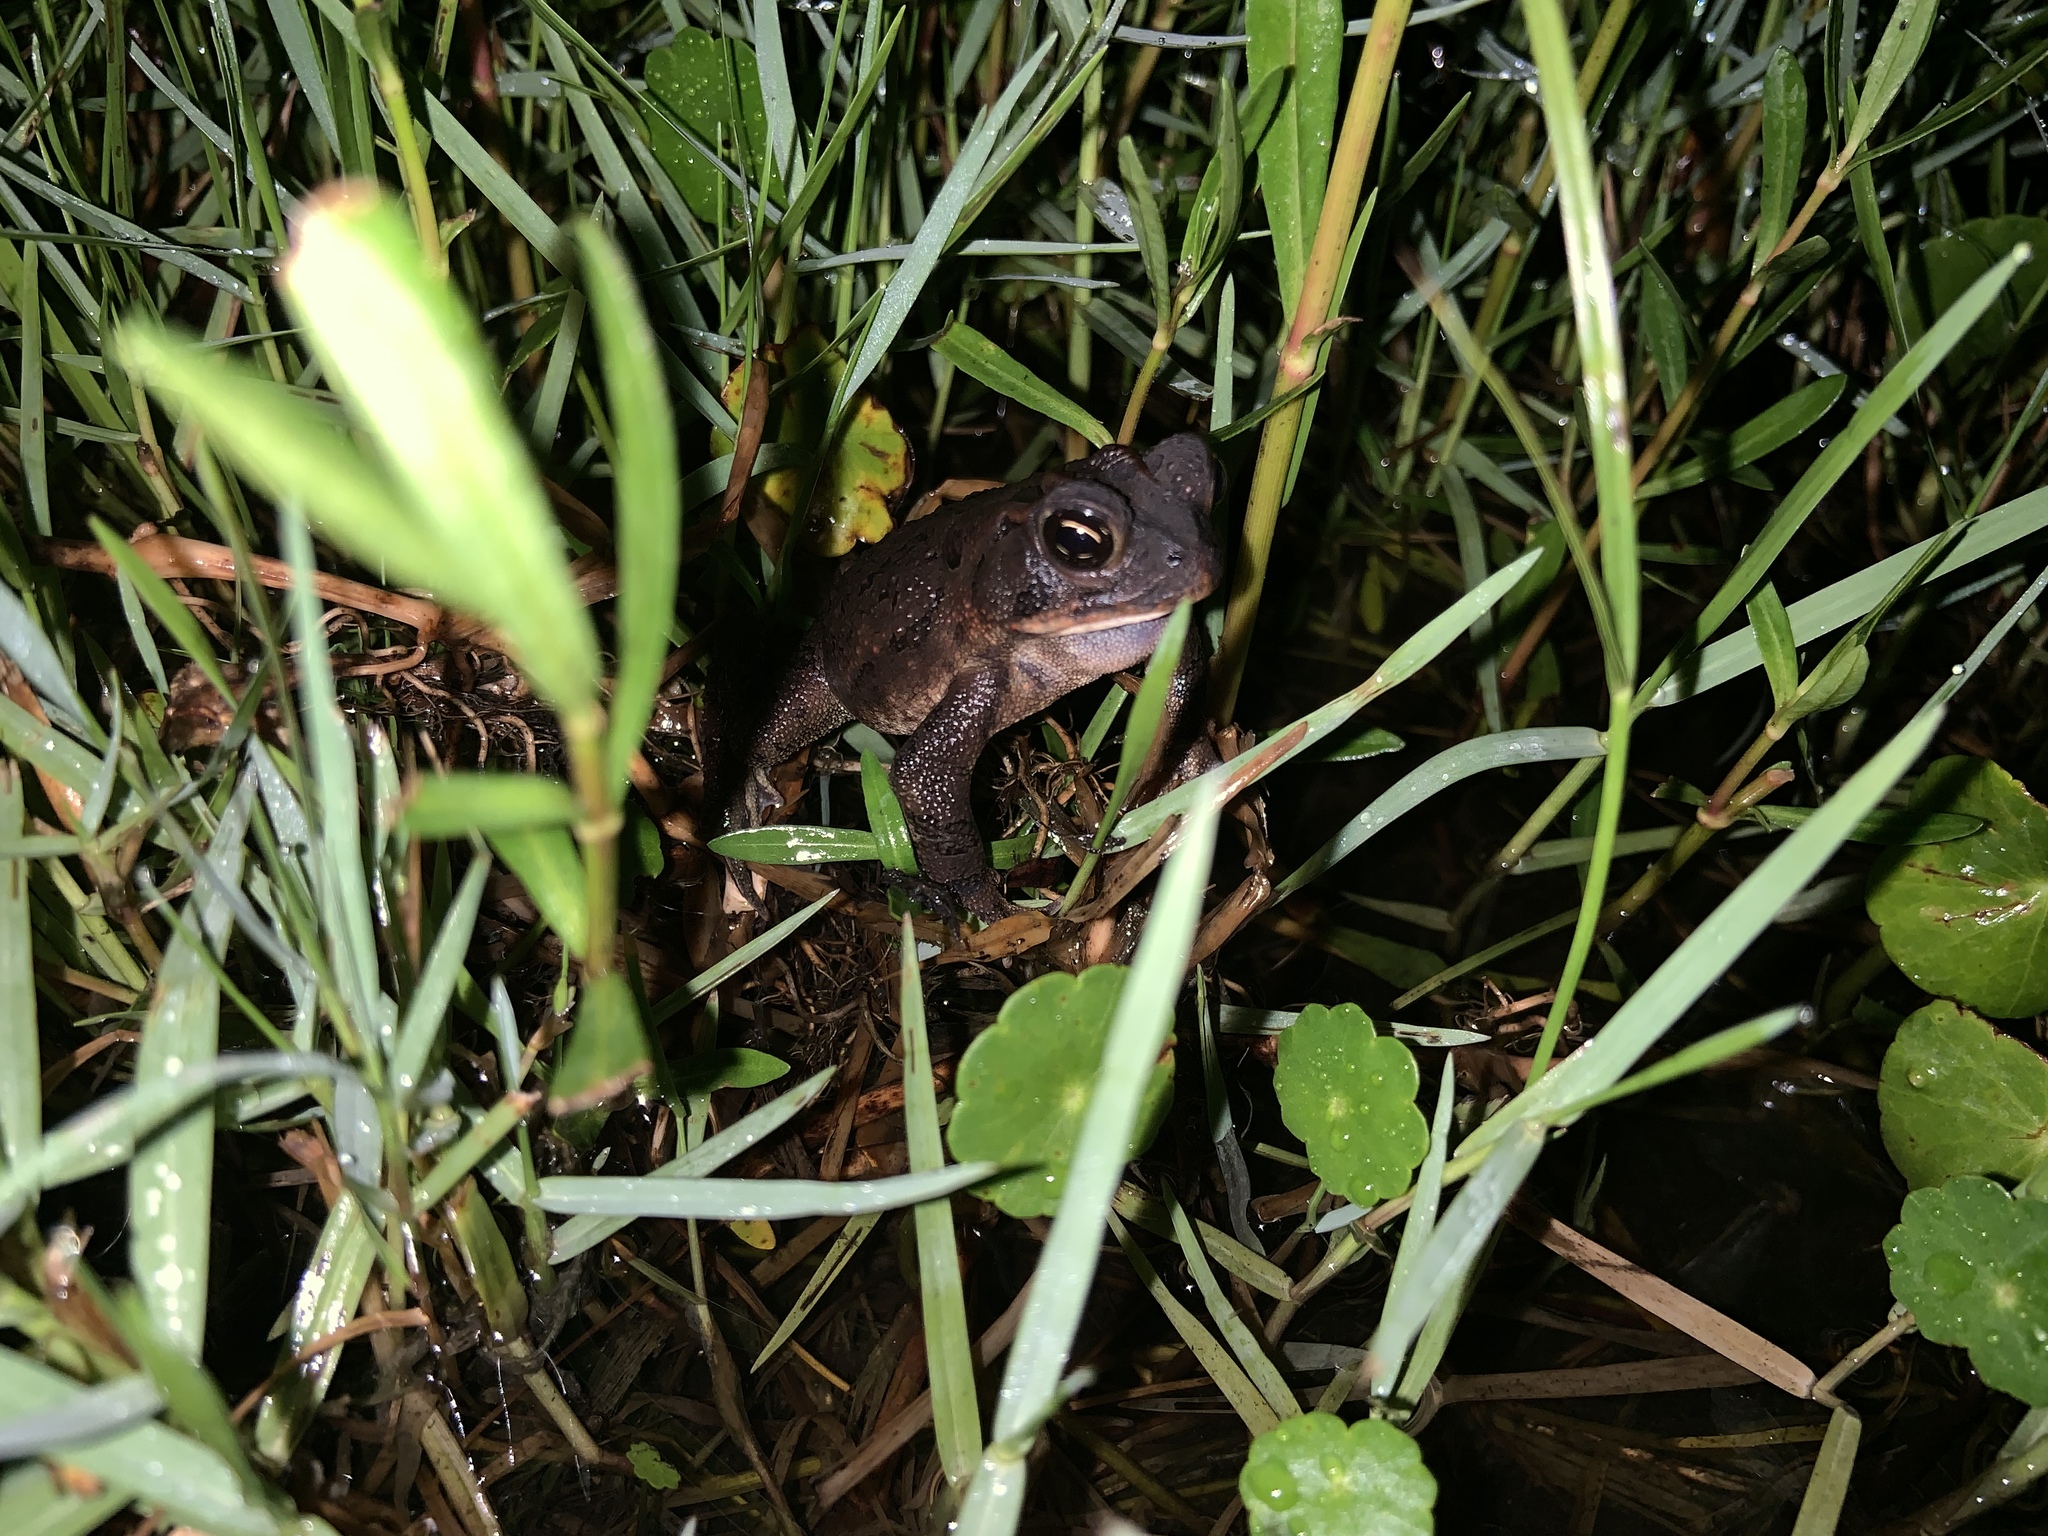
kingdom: Animalia
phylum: Chordata
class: Amphibia
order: Anura
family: Bufonidae
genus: Anaxyrus
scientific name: Anaxyrus terrestris
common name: Southern toad
